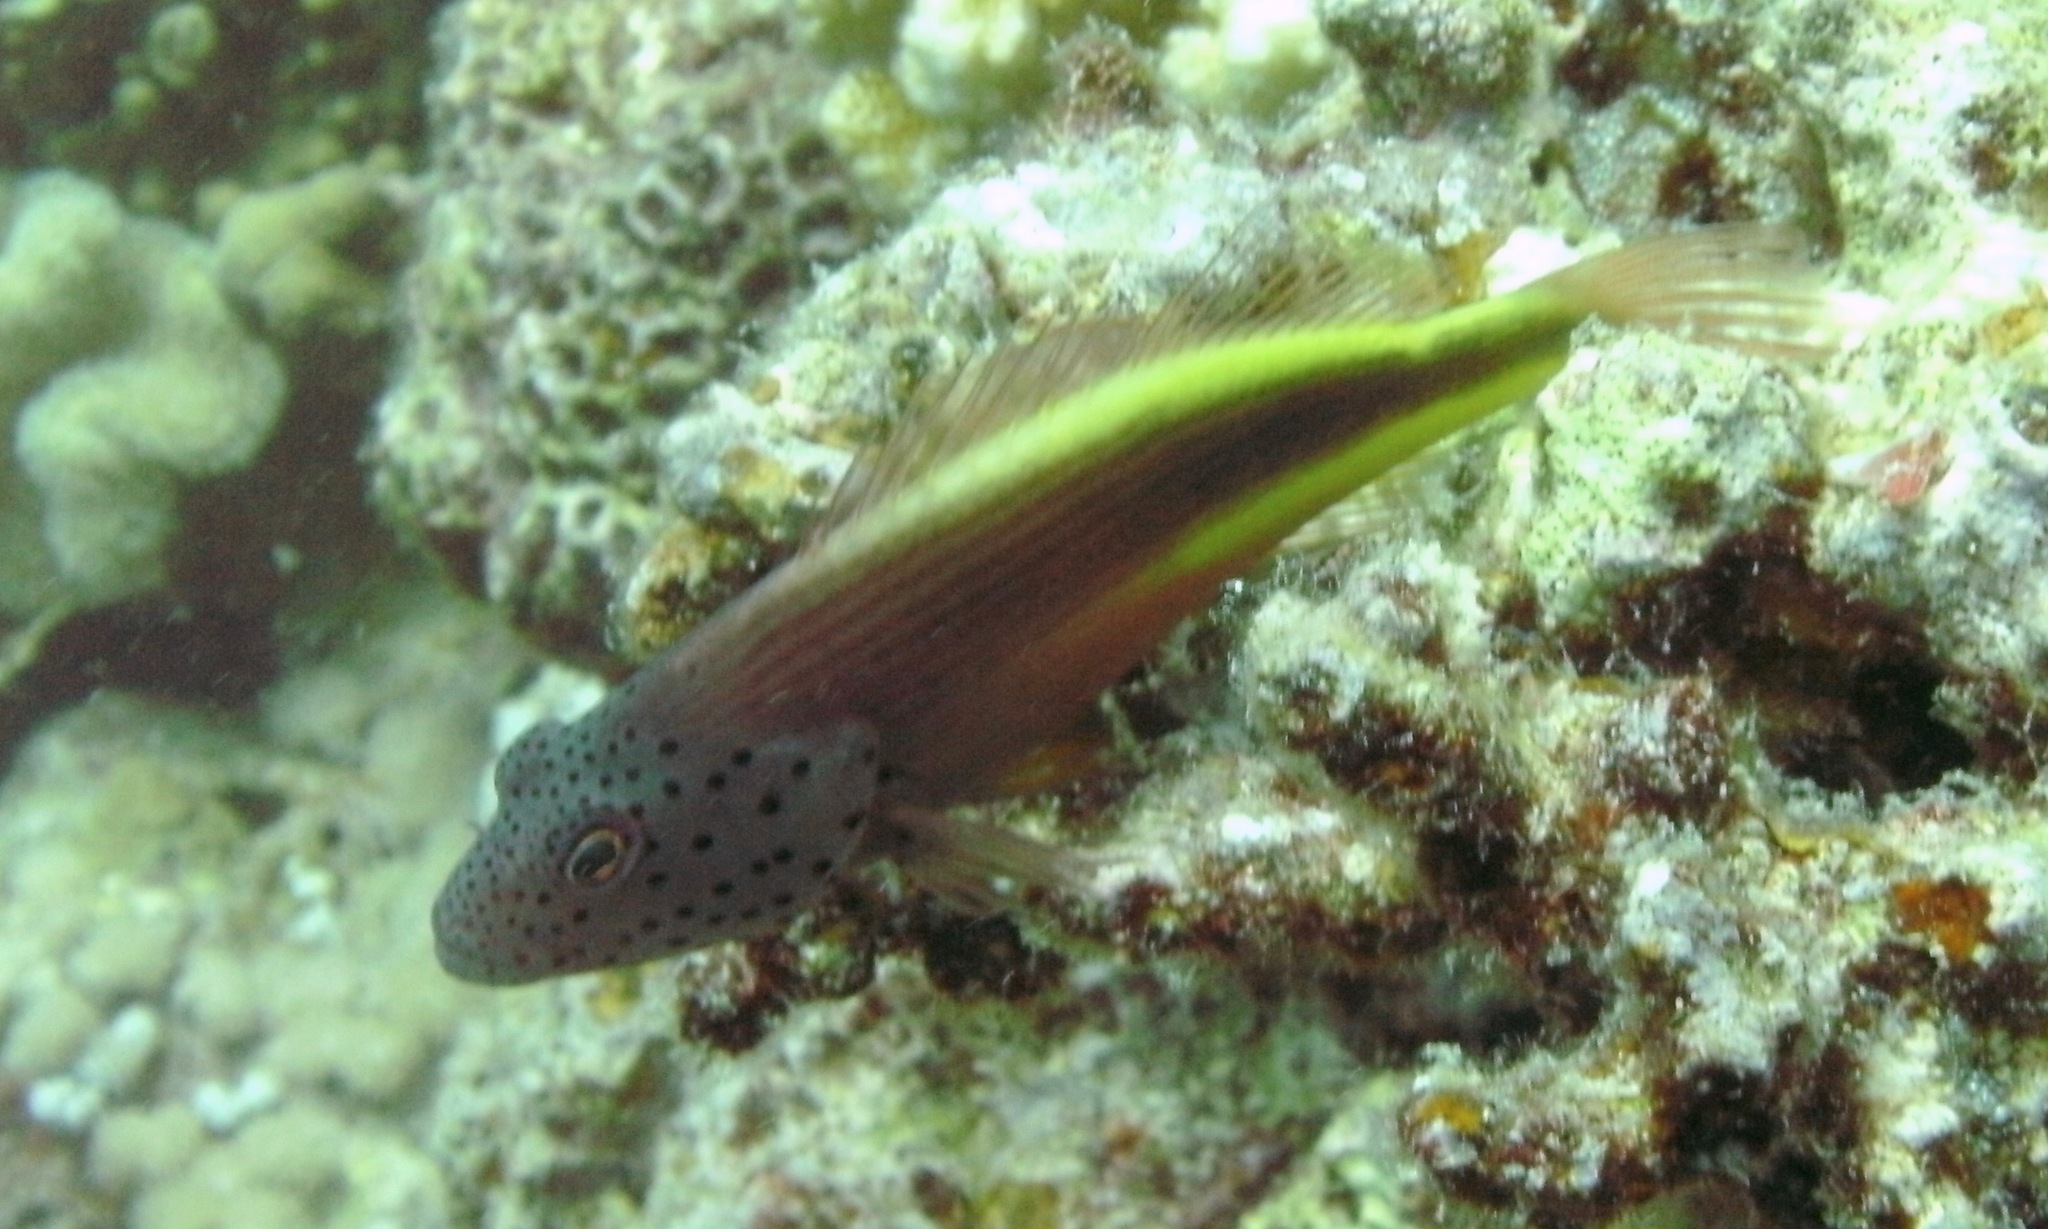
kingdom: Animalia
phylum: Chordata
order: Perciformes
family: Cirrhitidae
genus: Paracirrhites
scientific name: Paracirrhites forsteri
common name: Freckled hawkfish
